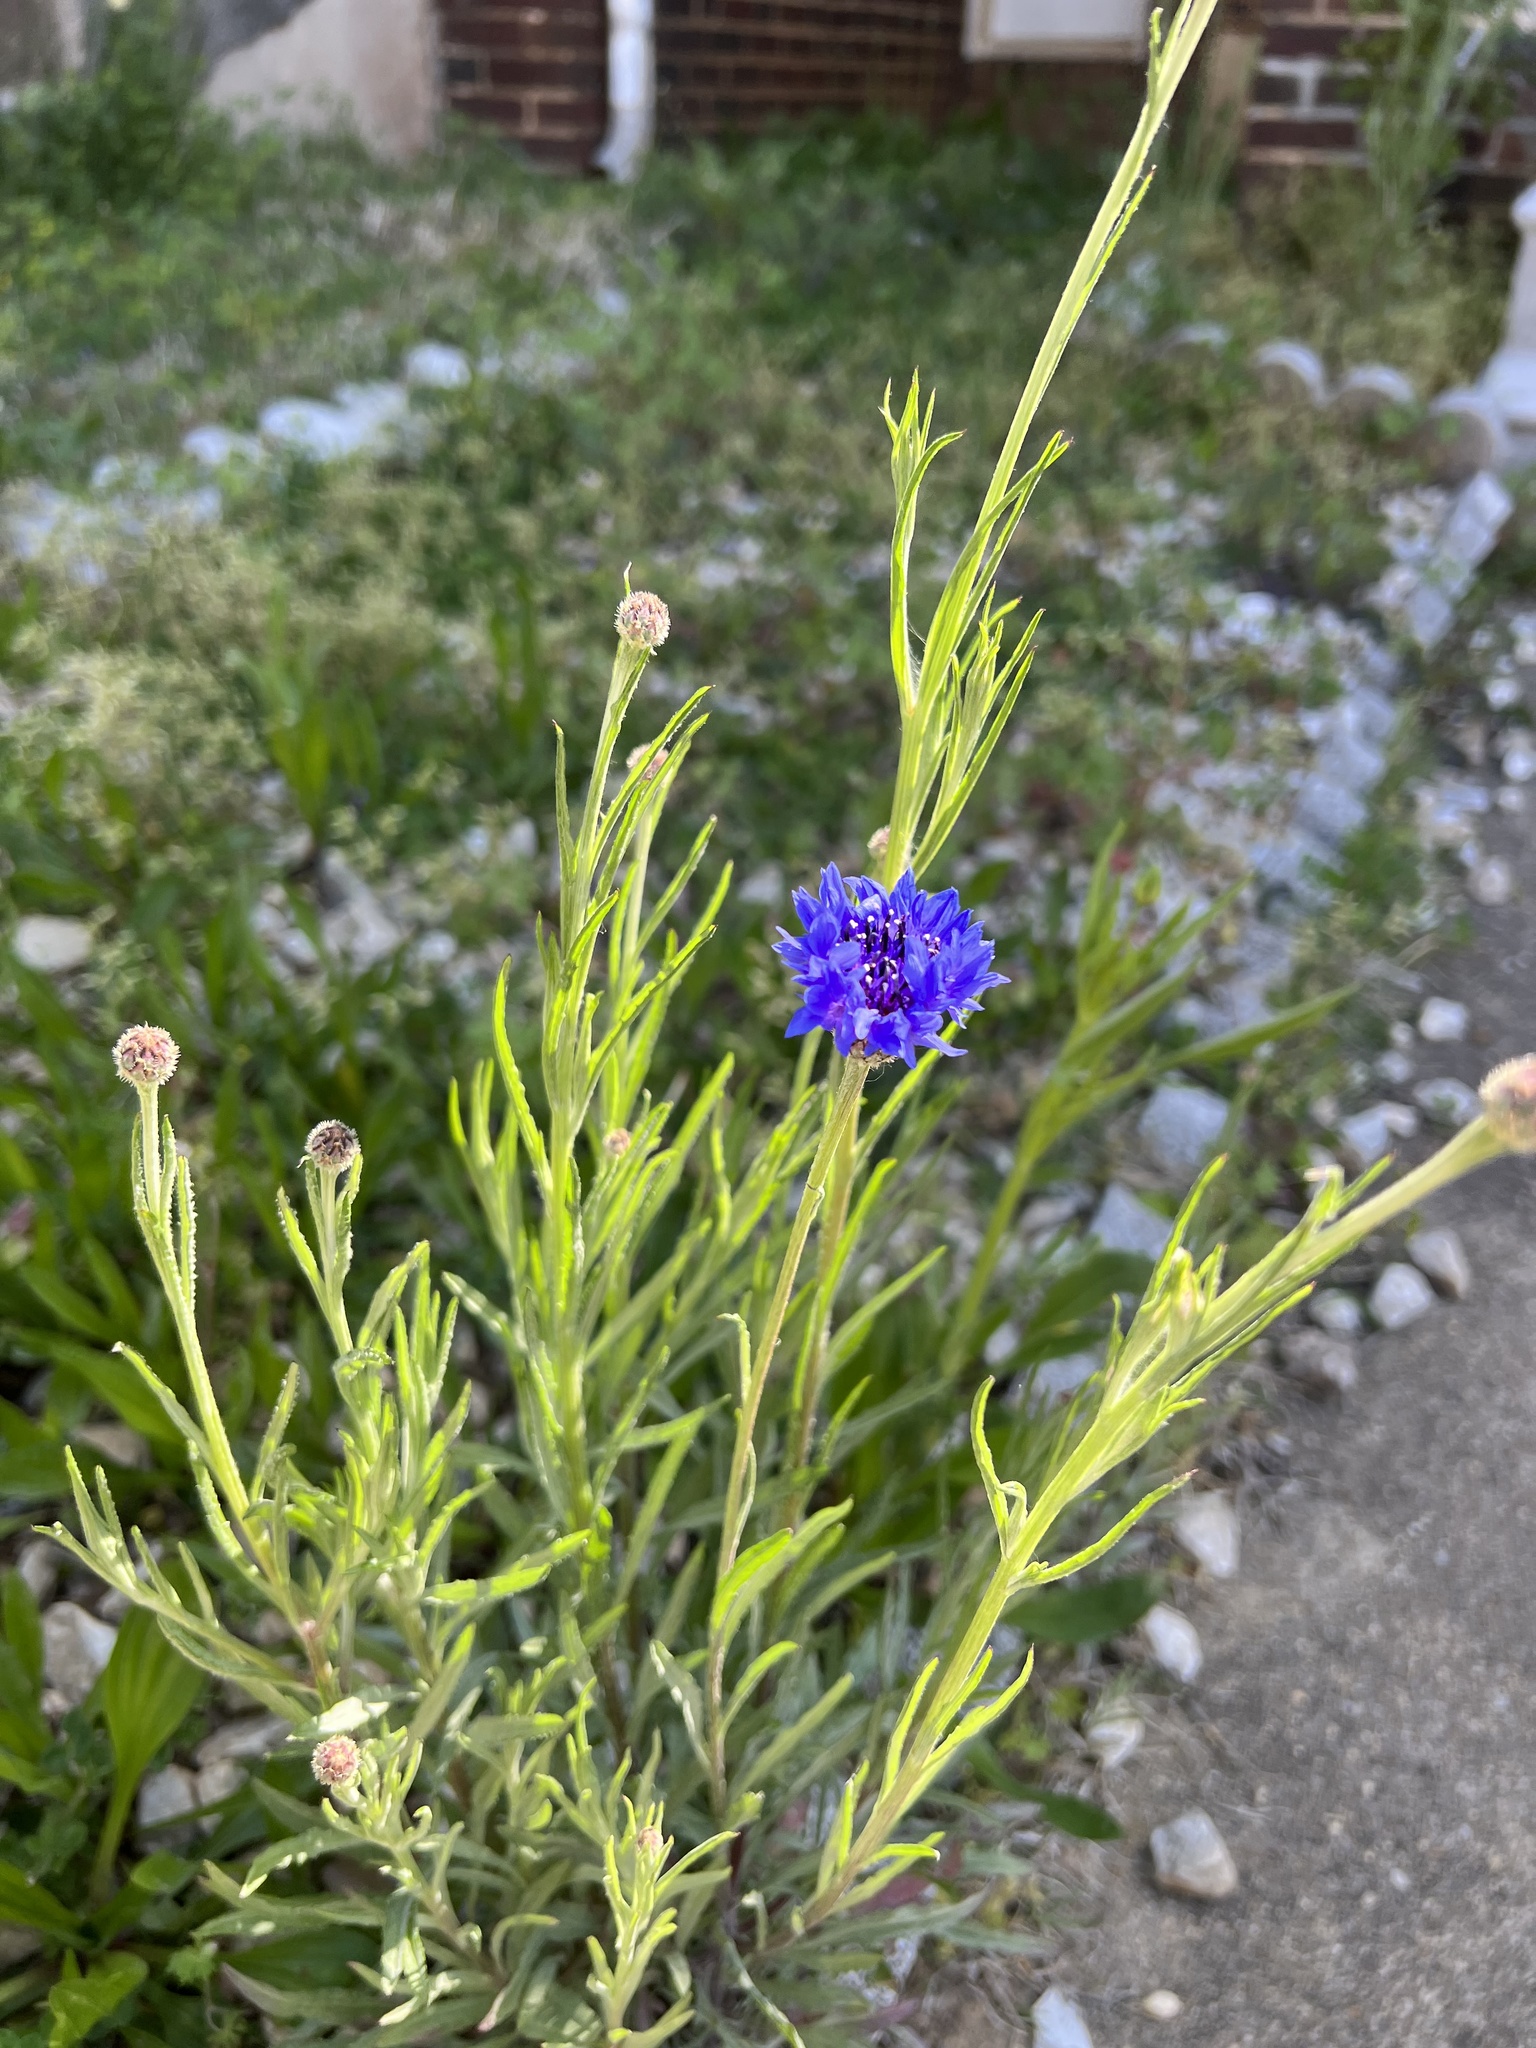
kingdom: Plantae
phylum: Tracheophyta
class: Magnoliopsida
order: Asterales
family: Asteraceae
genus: Centaurea
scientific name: Centaurea cyanus
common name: Cornflower
